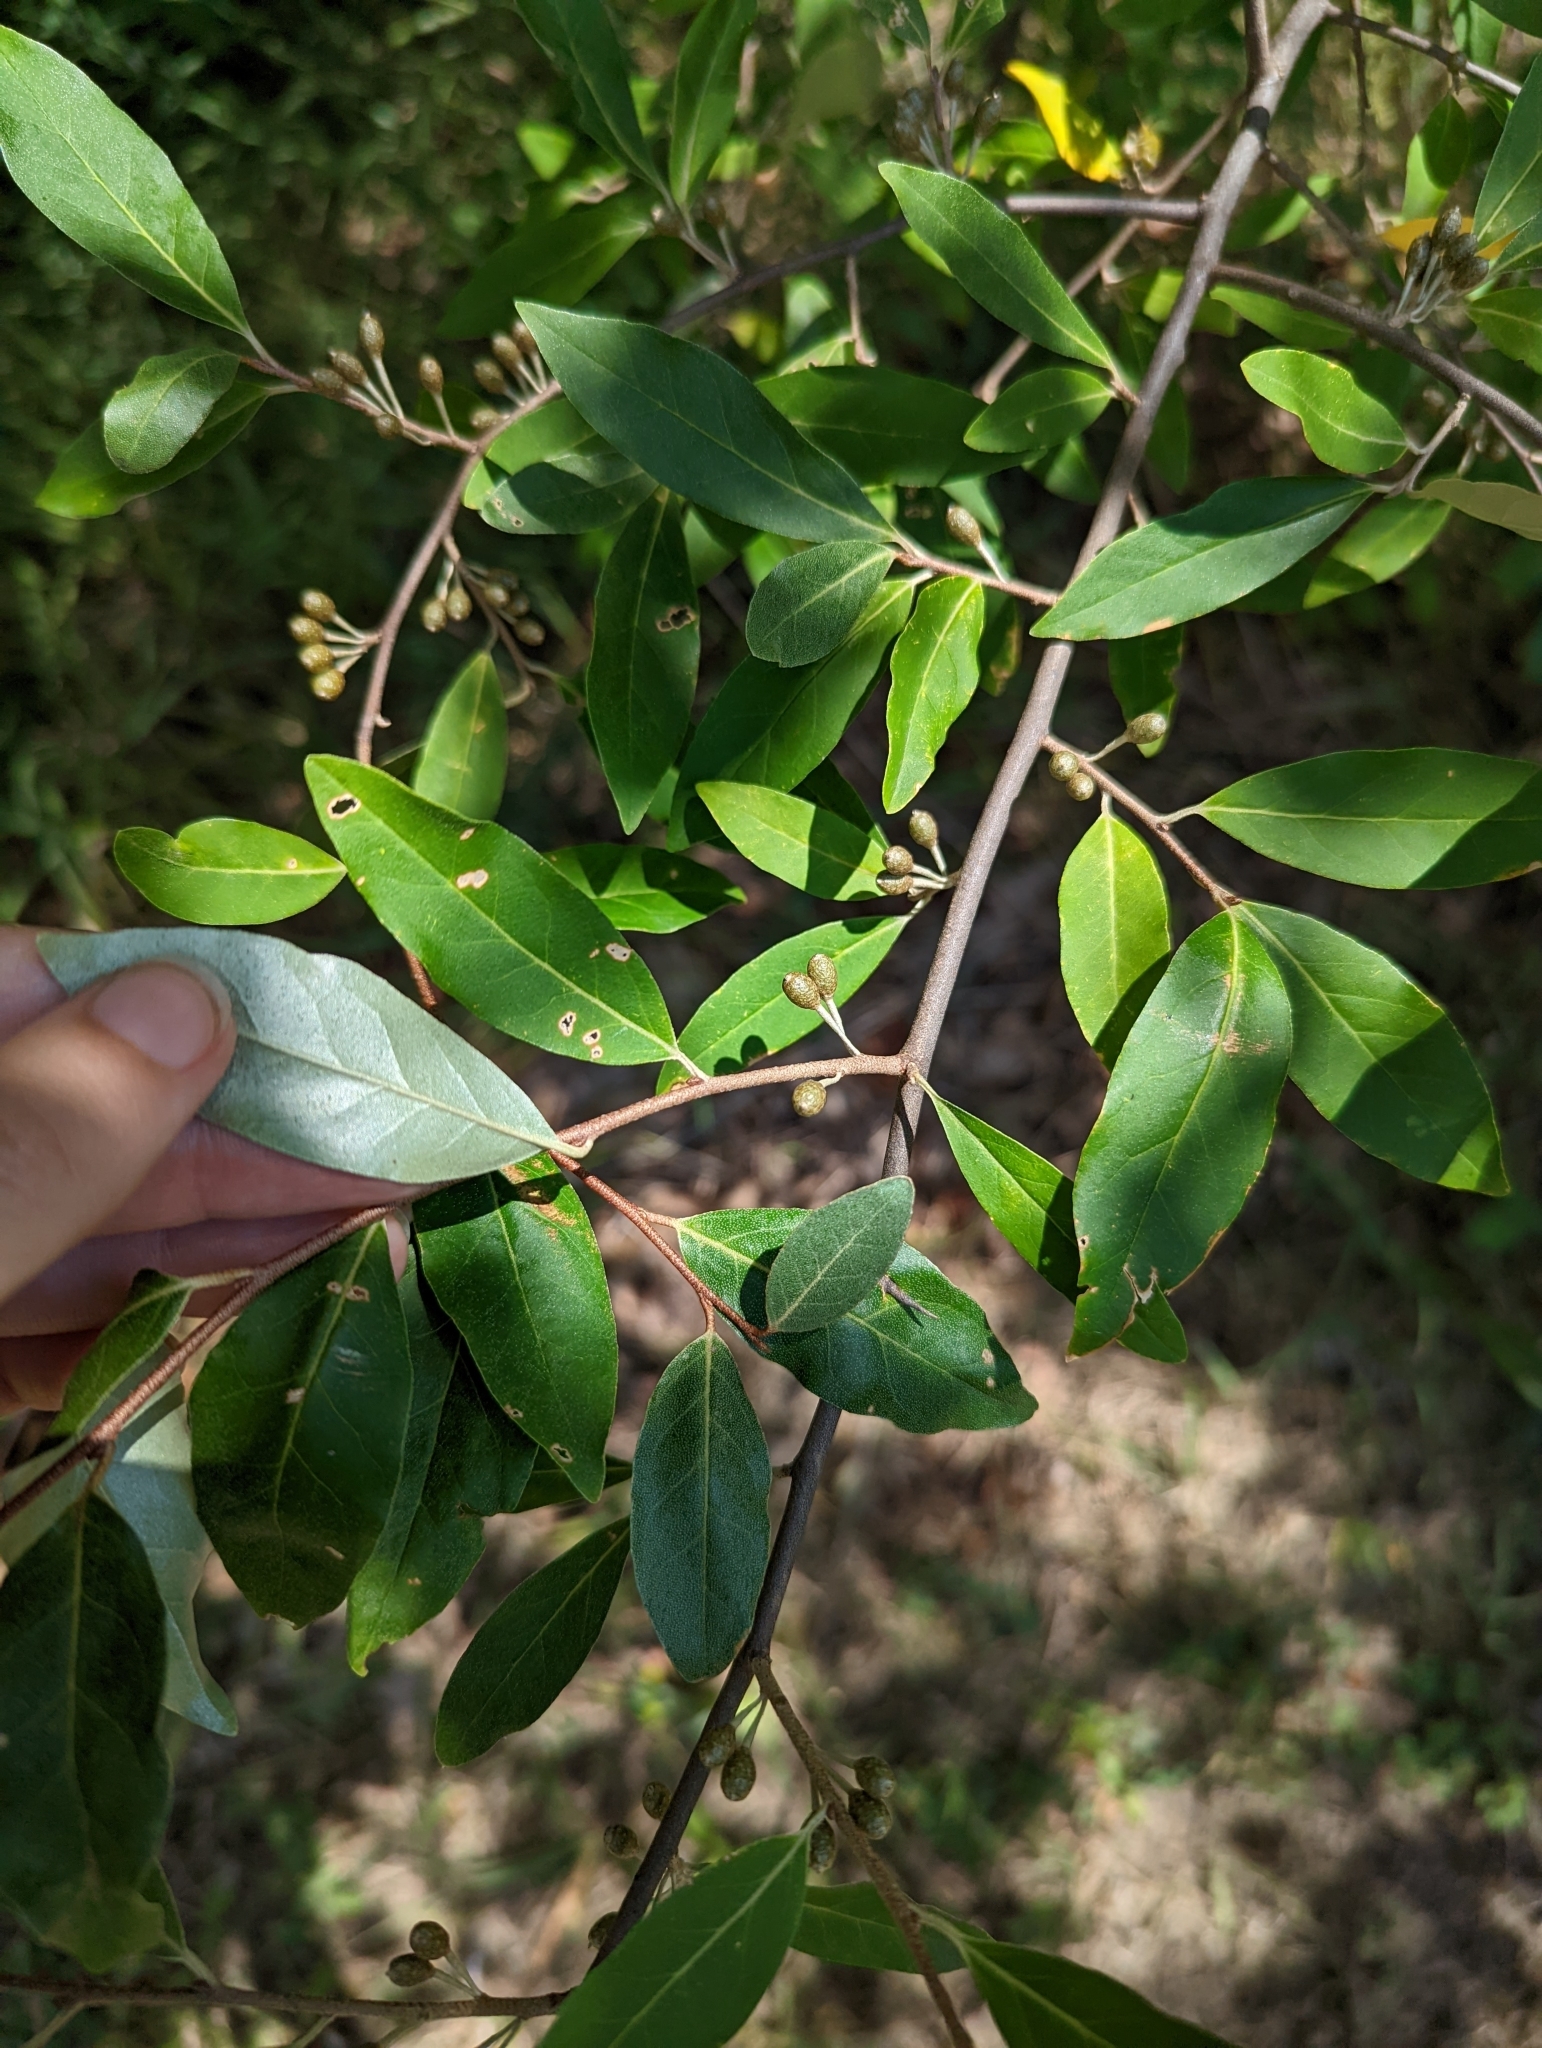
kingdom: Plantae
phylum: Tracheophyta
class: Magnoliopsida
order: Rosales
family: Elaeagnaceae
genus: Elaeagnus
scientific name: Elaeagnus umbellata
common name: Autumn olive
